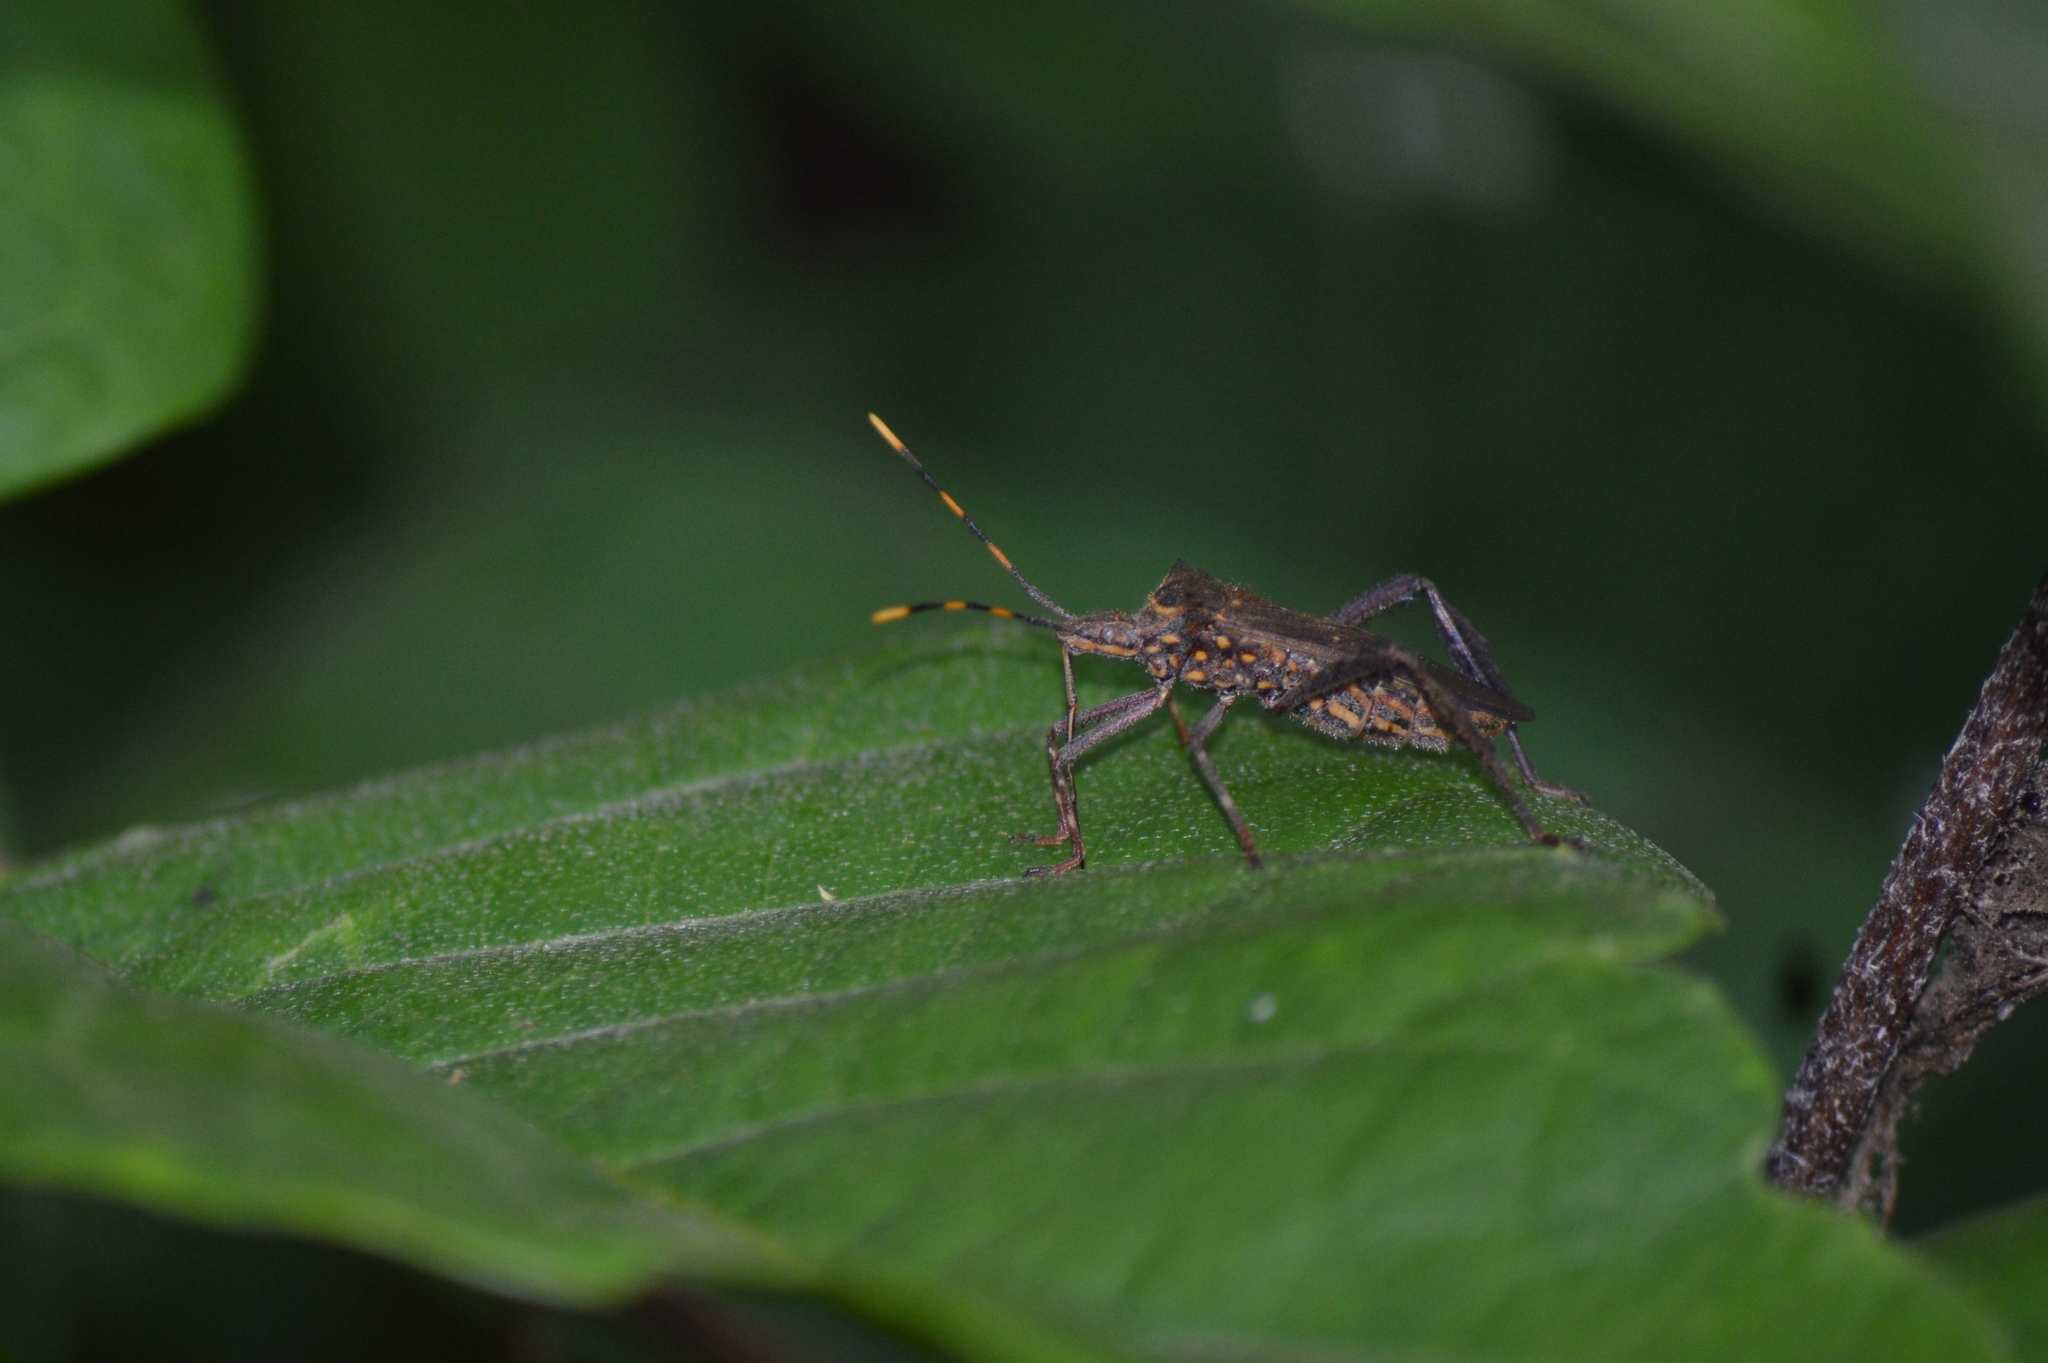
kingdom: Animalia
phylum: Arthropoda
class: Insecta
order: Hemiptera
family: Coreidae
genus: Leptoglossus
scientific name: Leptoglossus gonagra
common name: Citron bug
